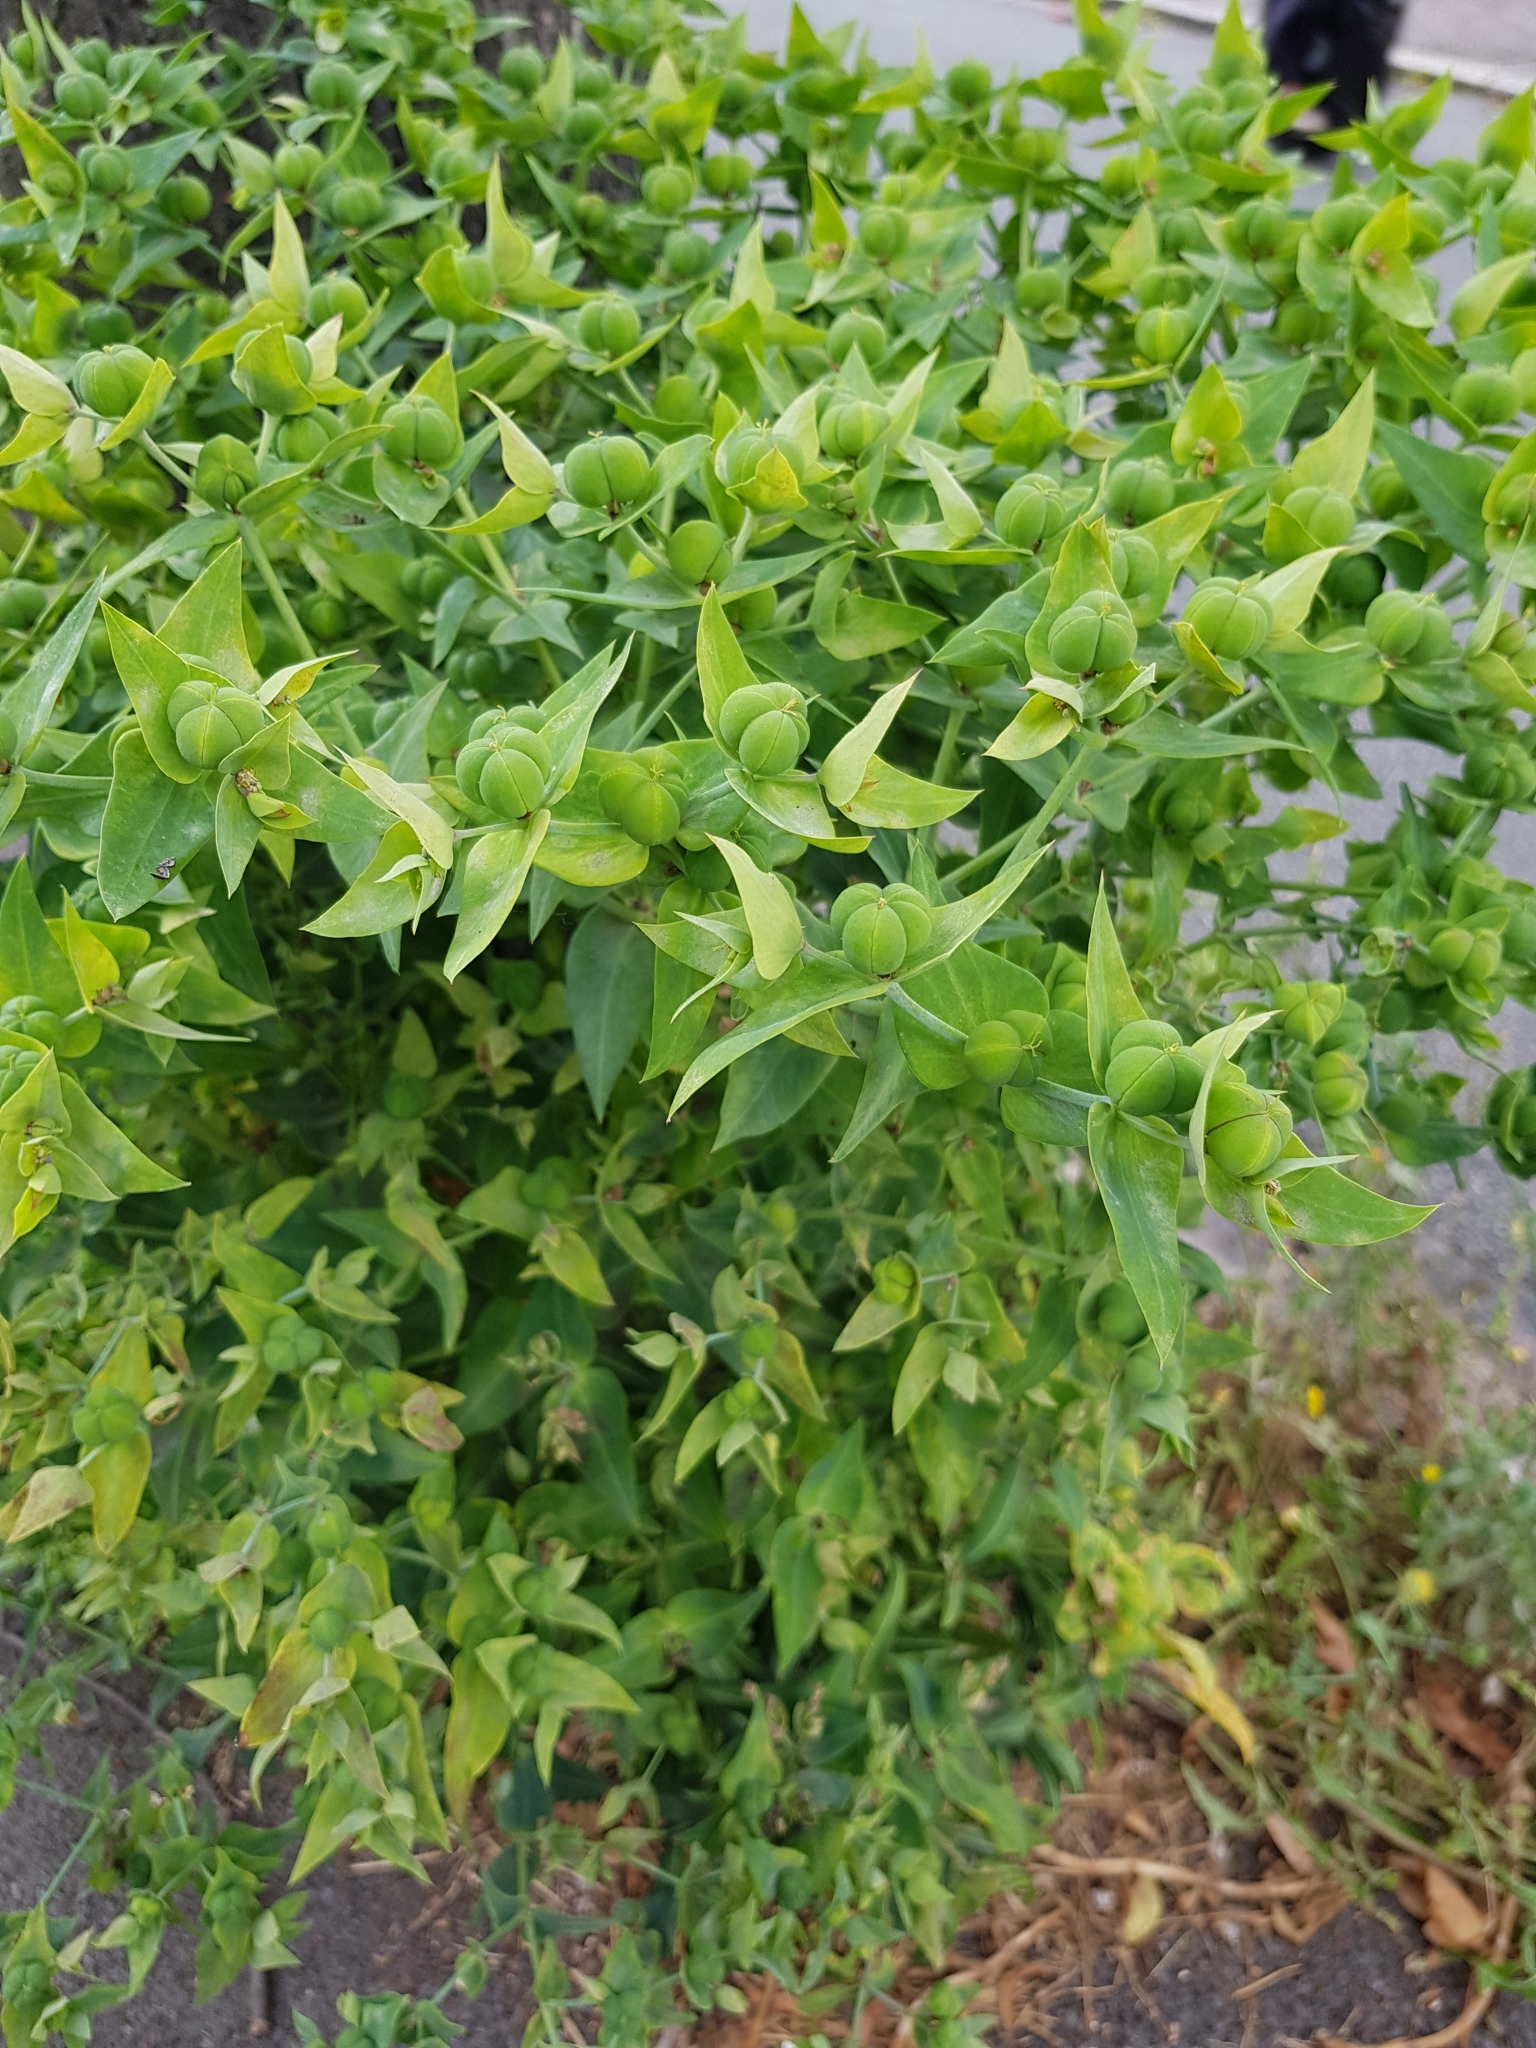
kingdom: Plantae
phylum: Tracheophyta
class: Magnoliopsida
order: Malpighiales
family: Euphorbiaceae
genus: Euphorbia
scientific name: Euphorbia lathyris
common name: Caper spurge
